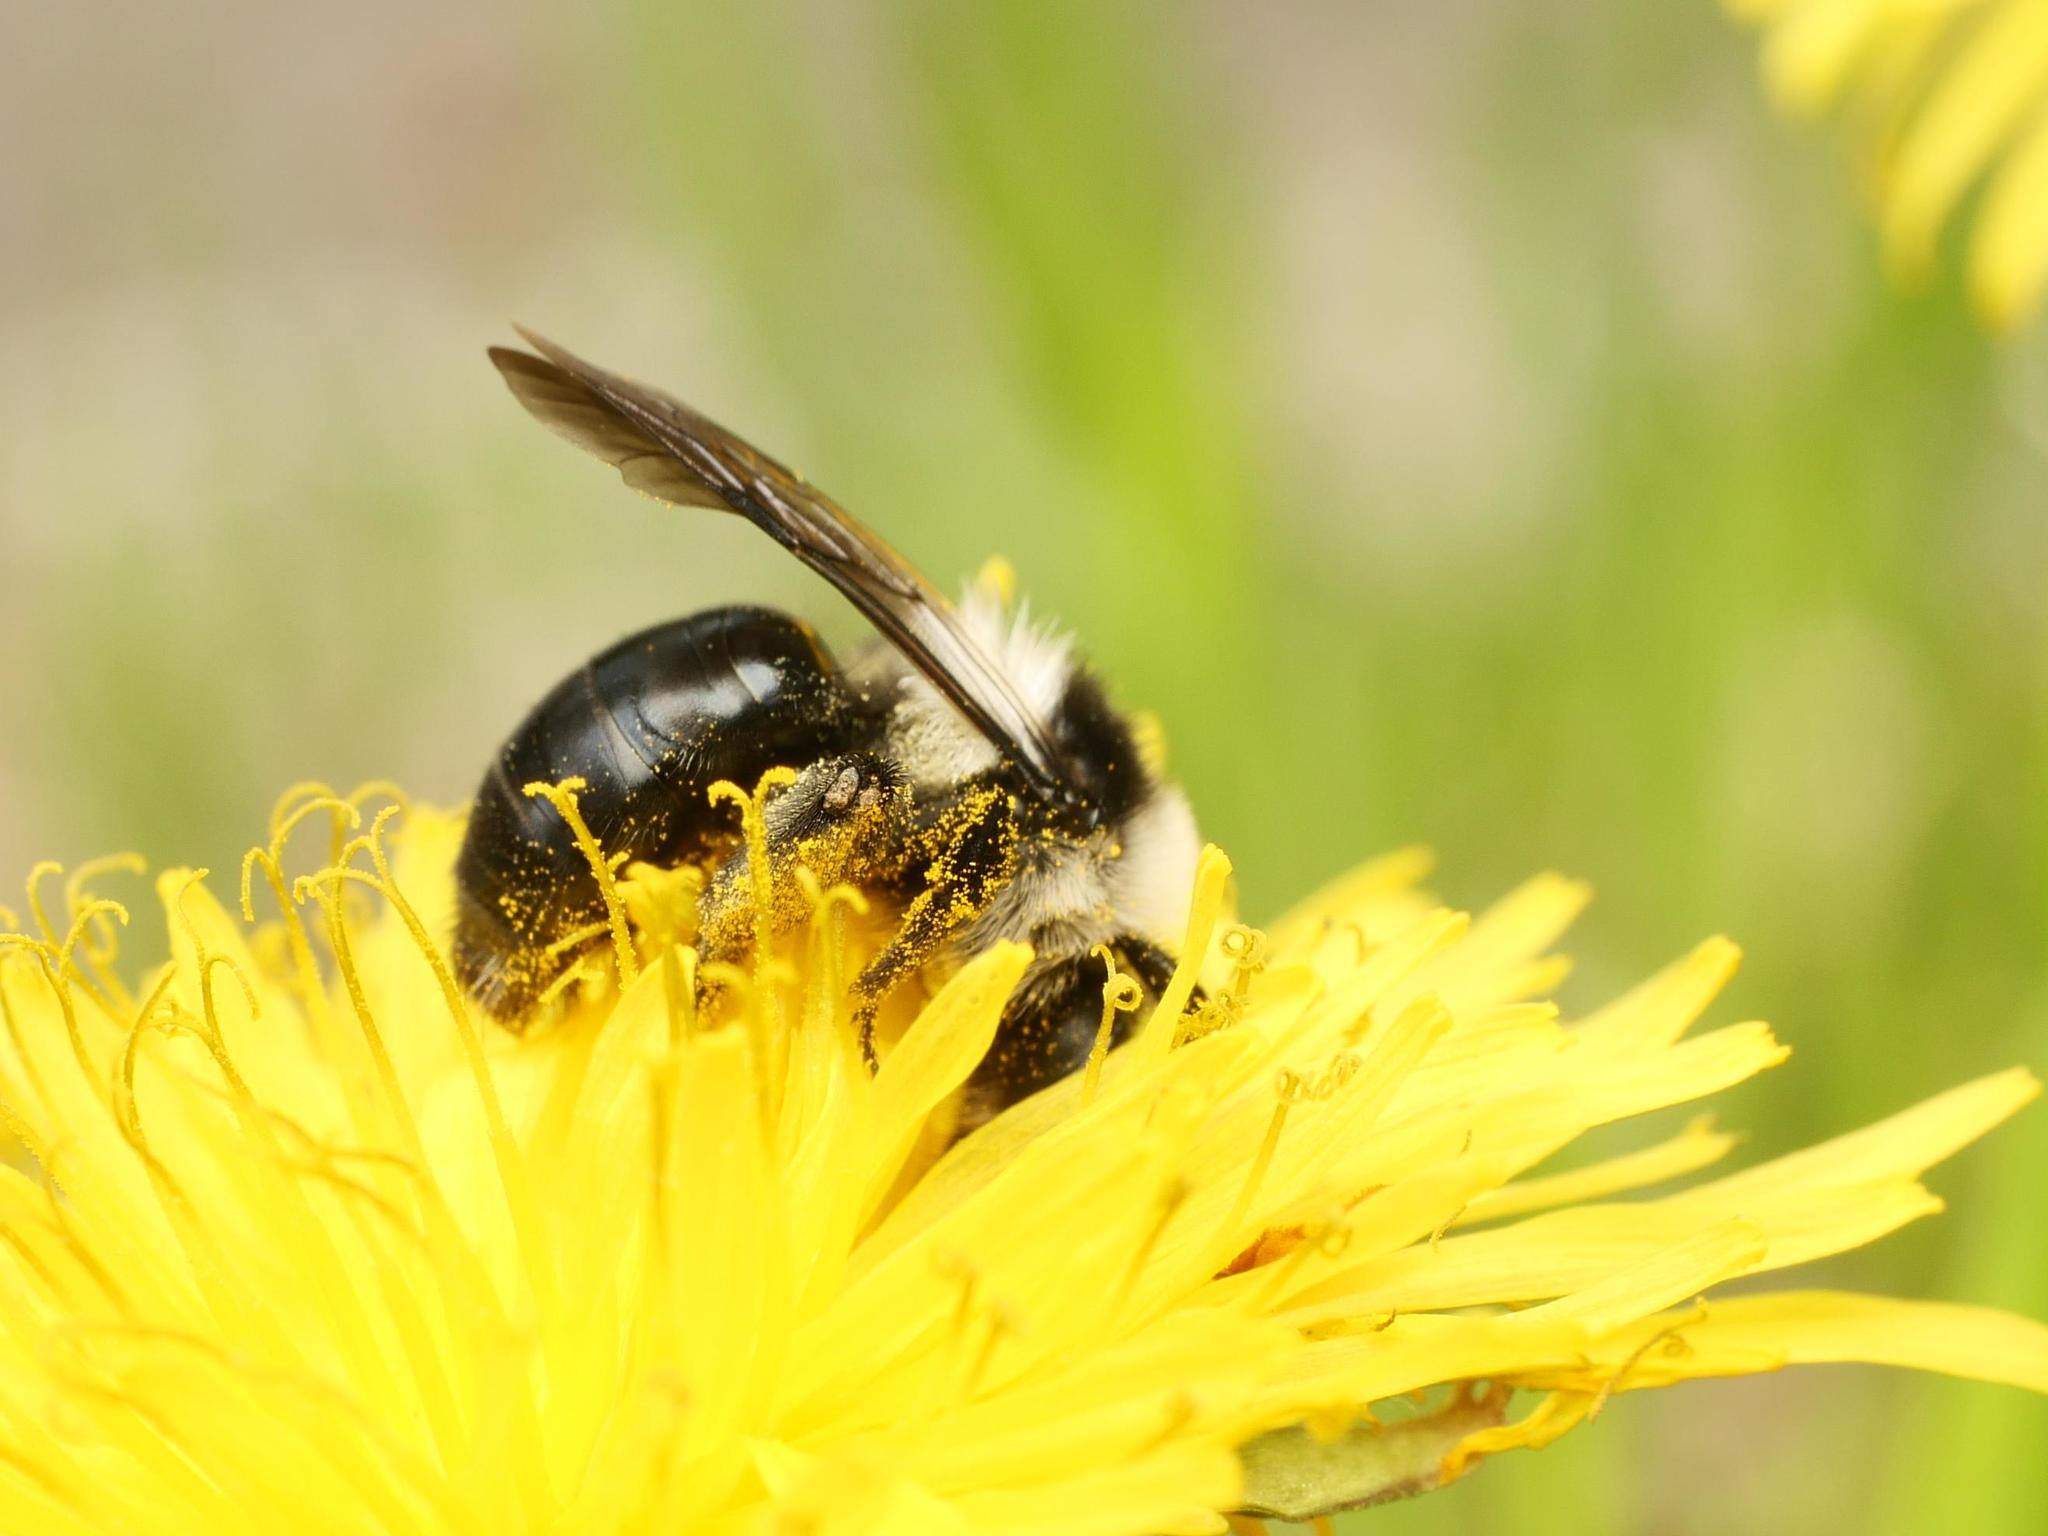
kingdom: Animalia
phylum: Arthropoda
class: Insecta
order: Hymenoptera
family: Andrenidae
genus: Andrena
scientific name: Andrena cineraria
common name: Ashy mining bee
